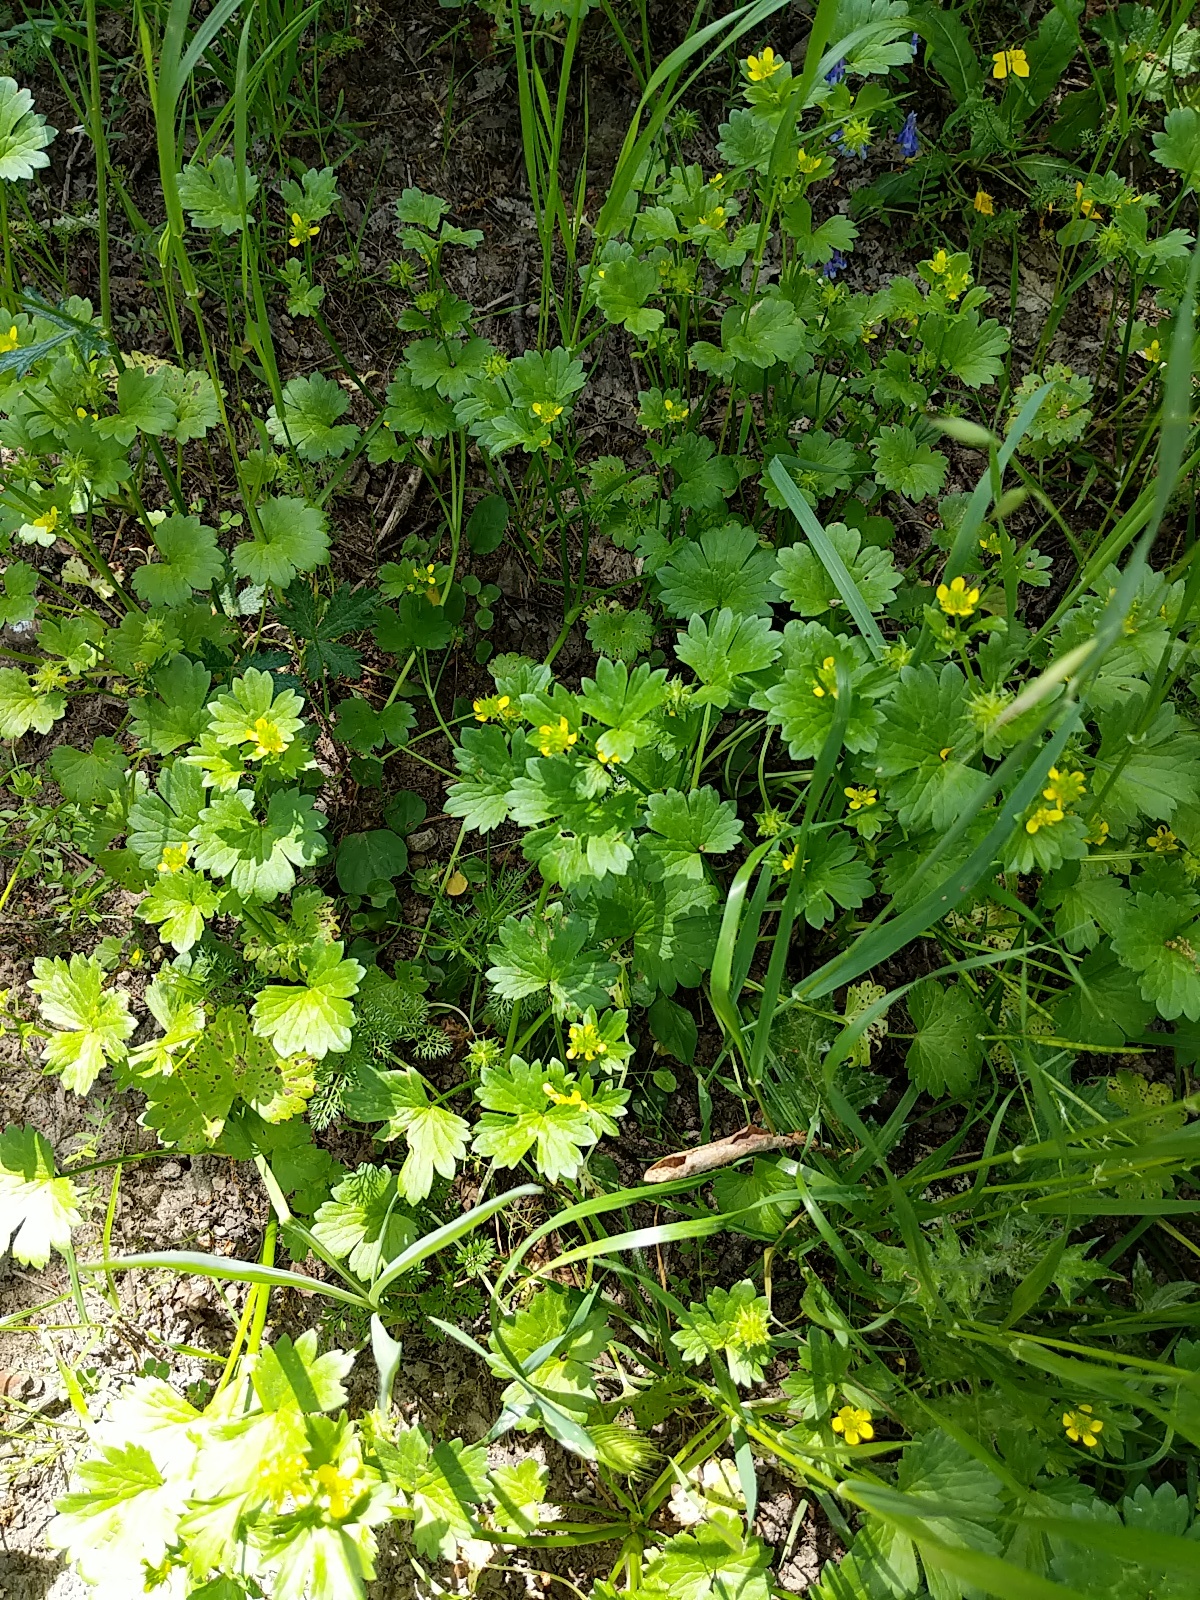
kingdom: Plantae
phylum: Tracheophyta
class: Magnoliopsida
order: Ranunculales
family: Ranunculaceae
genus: Ranunculus
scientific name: Ranunculus muricatus
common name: Rough-fruited buttercup
